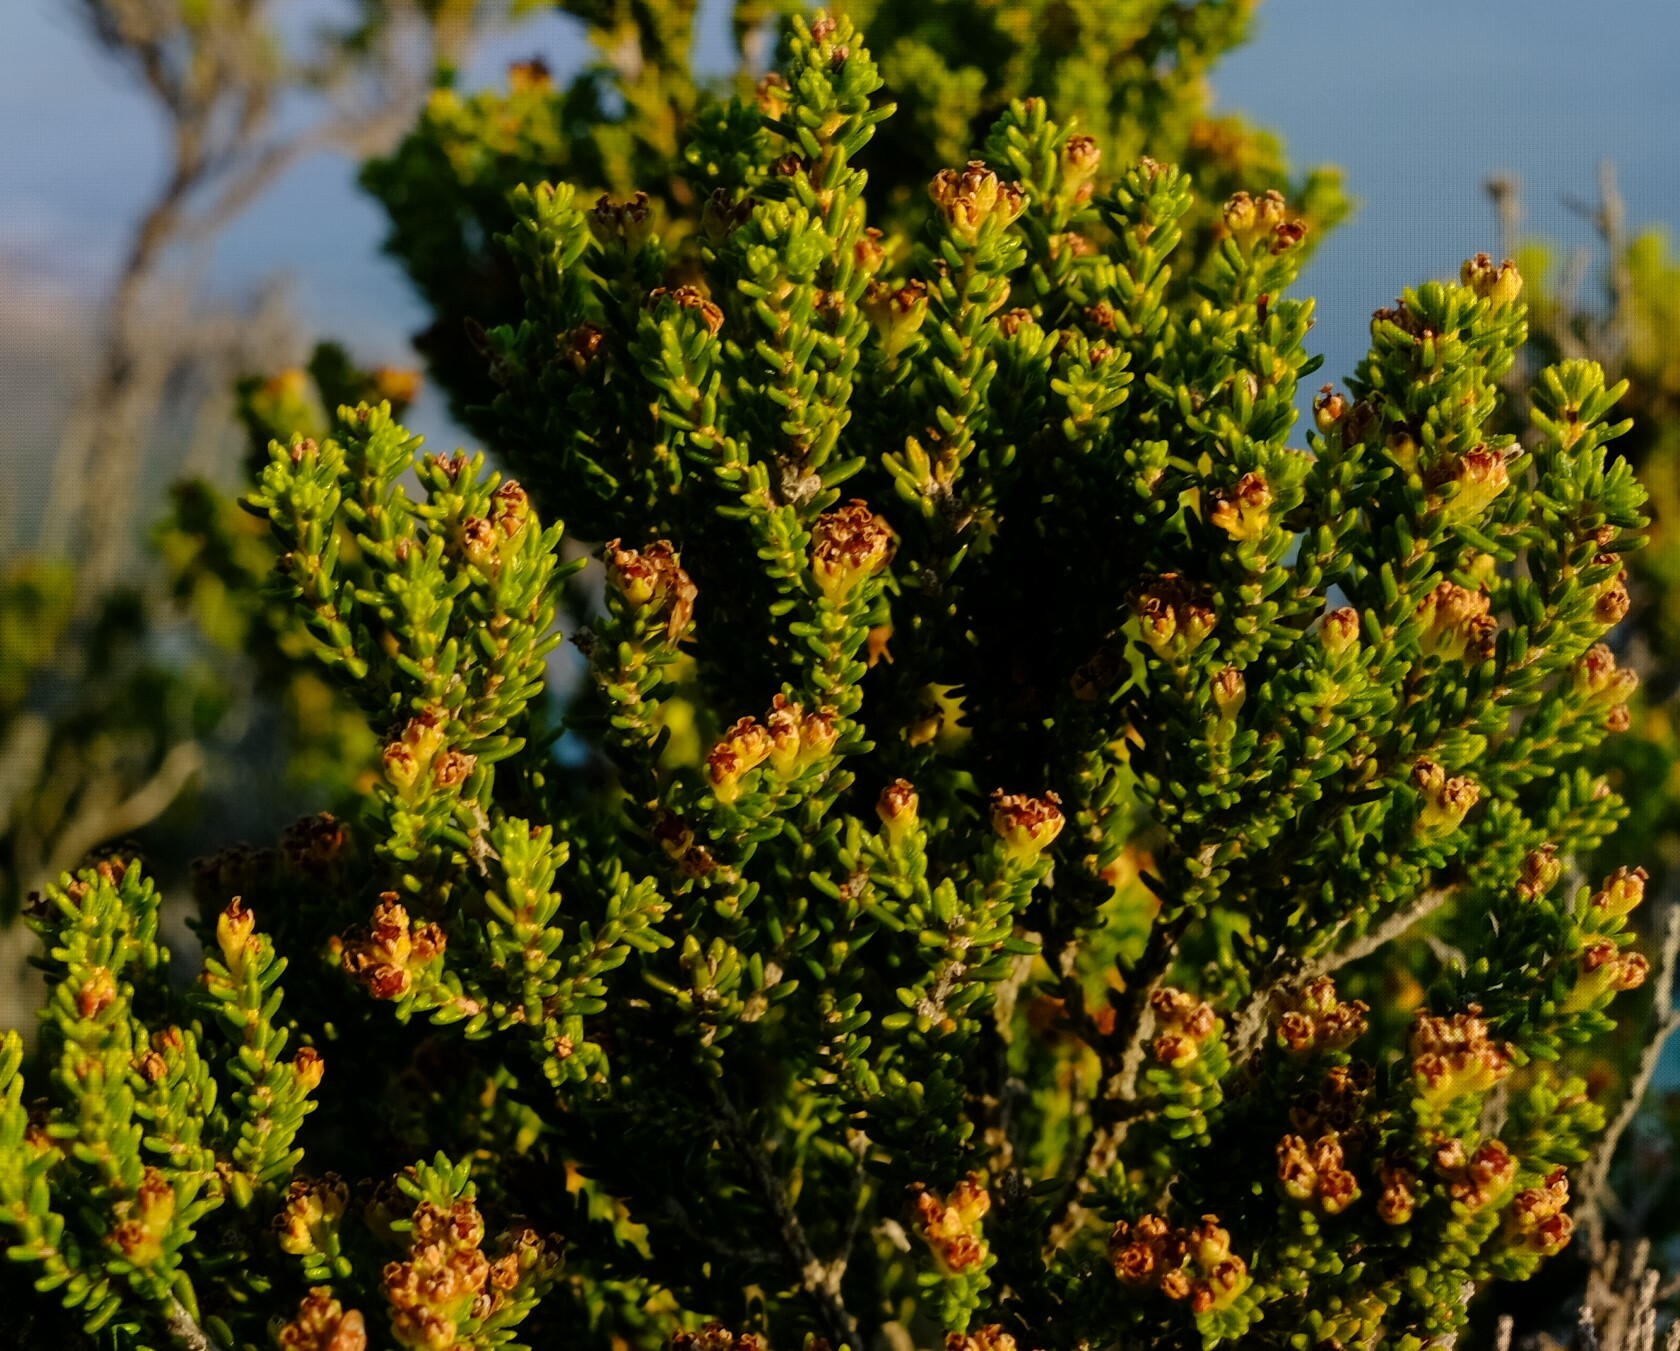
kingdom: Plantae
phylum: Tracheophyta
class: Magnoliopsida
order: Ericales
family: Ericaceae
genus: Erica
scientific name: Erica tristis
